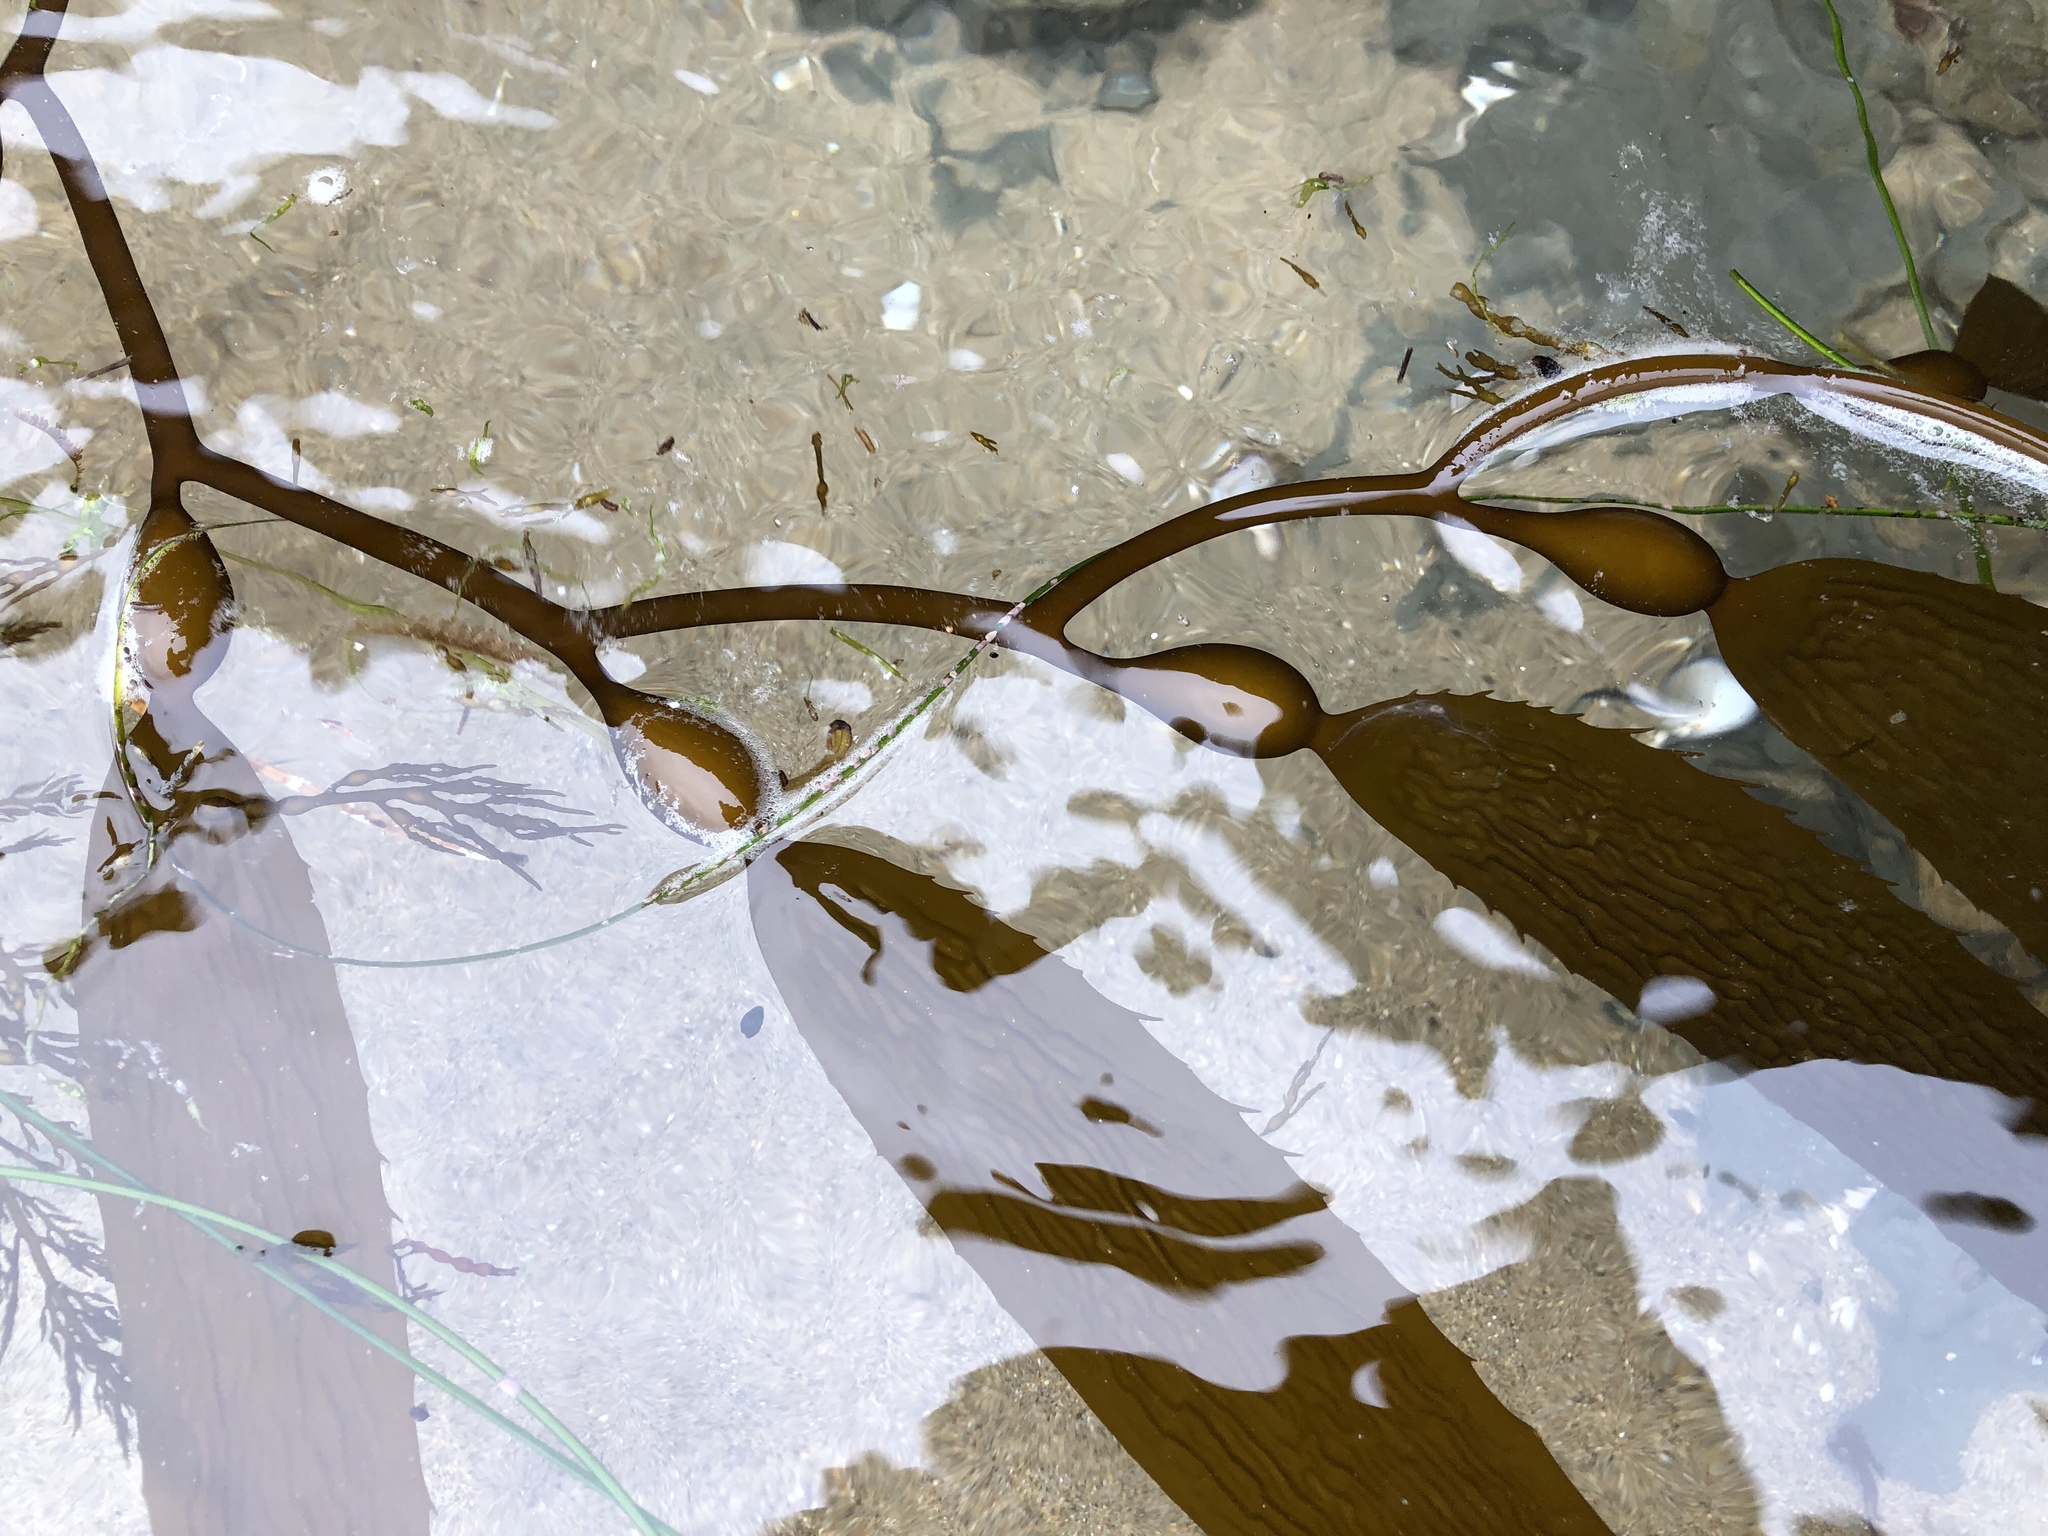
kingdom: Chromista
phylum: Ochrophyta
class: Phaeophyceae
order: Laminariales
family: Laminariaceae
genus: Macrocystis
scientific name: Macrocystis pyrifera
